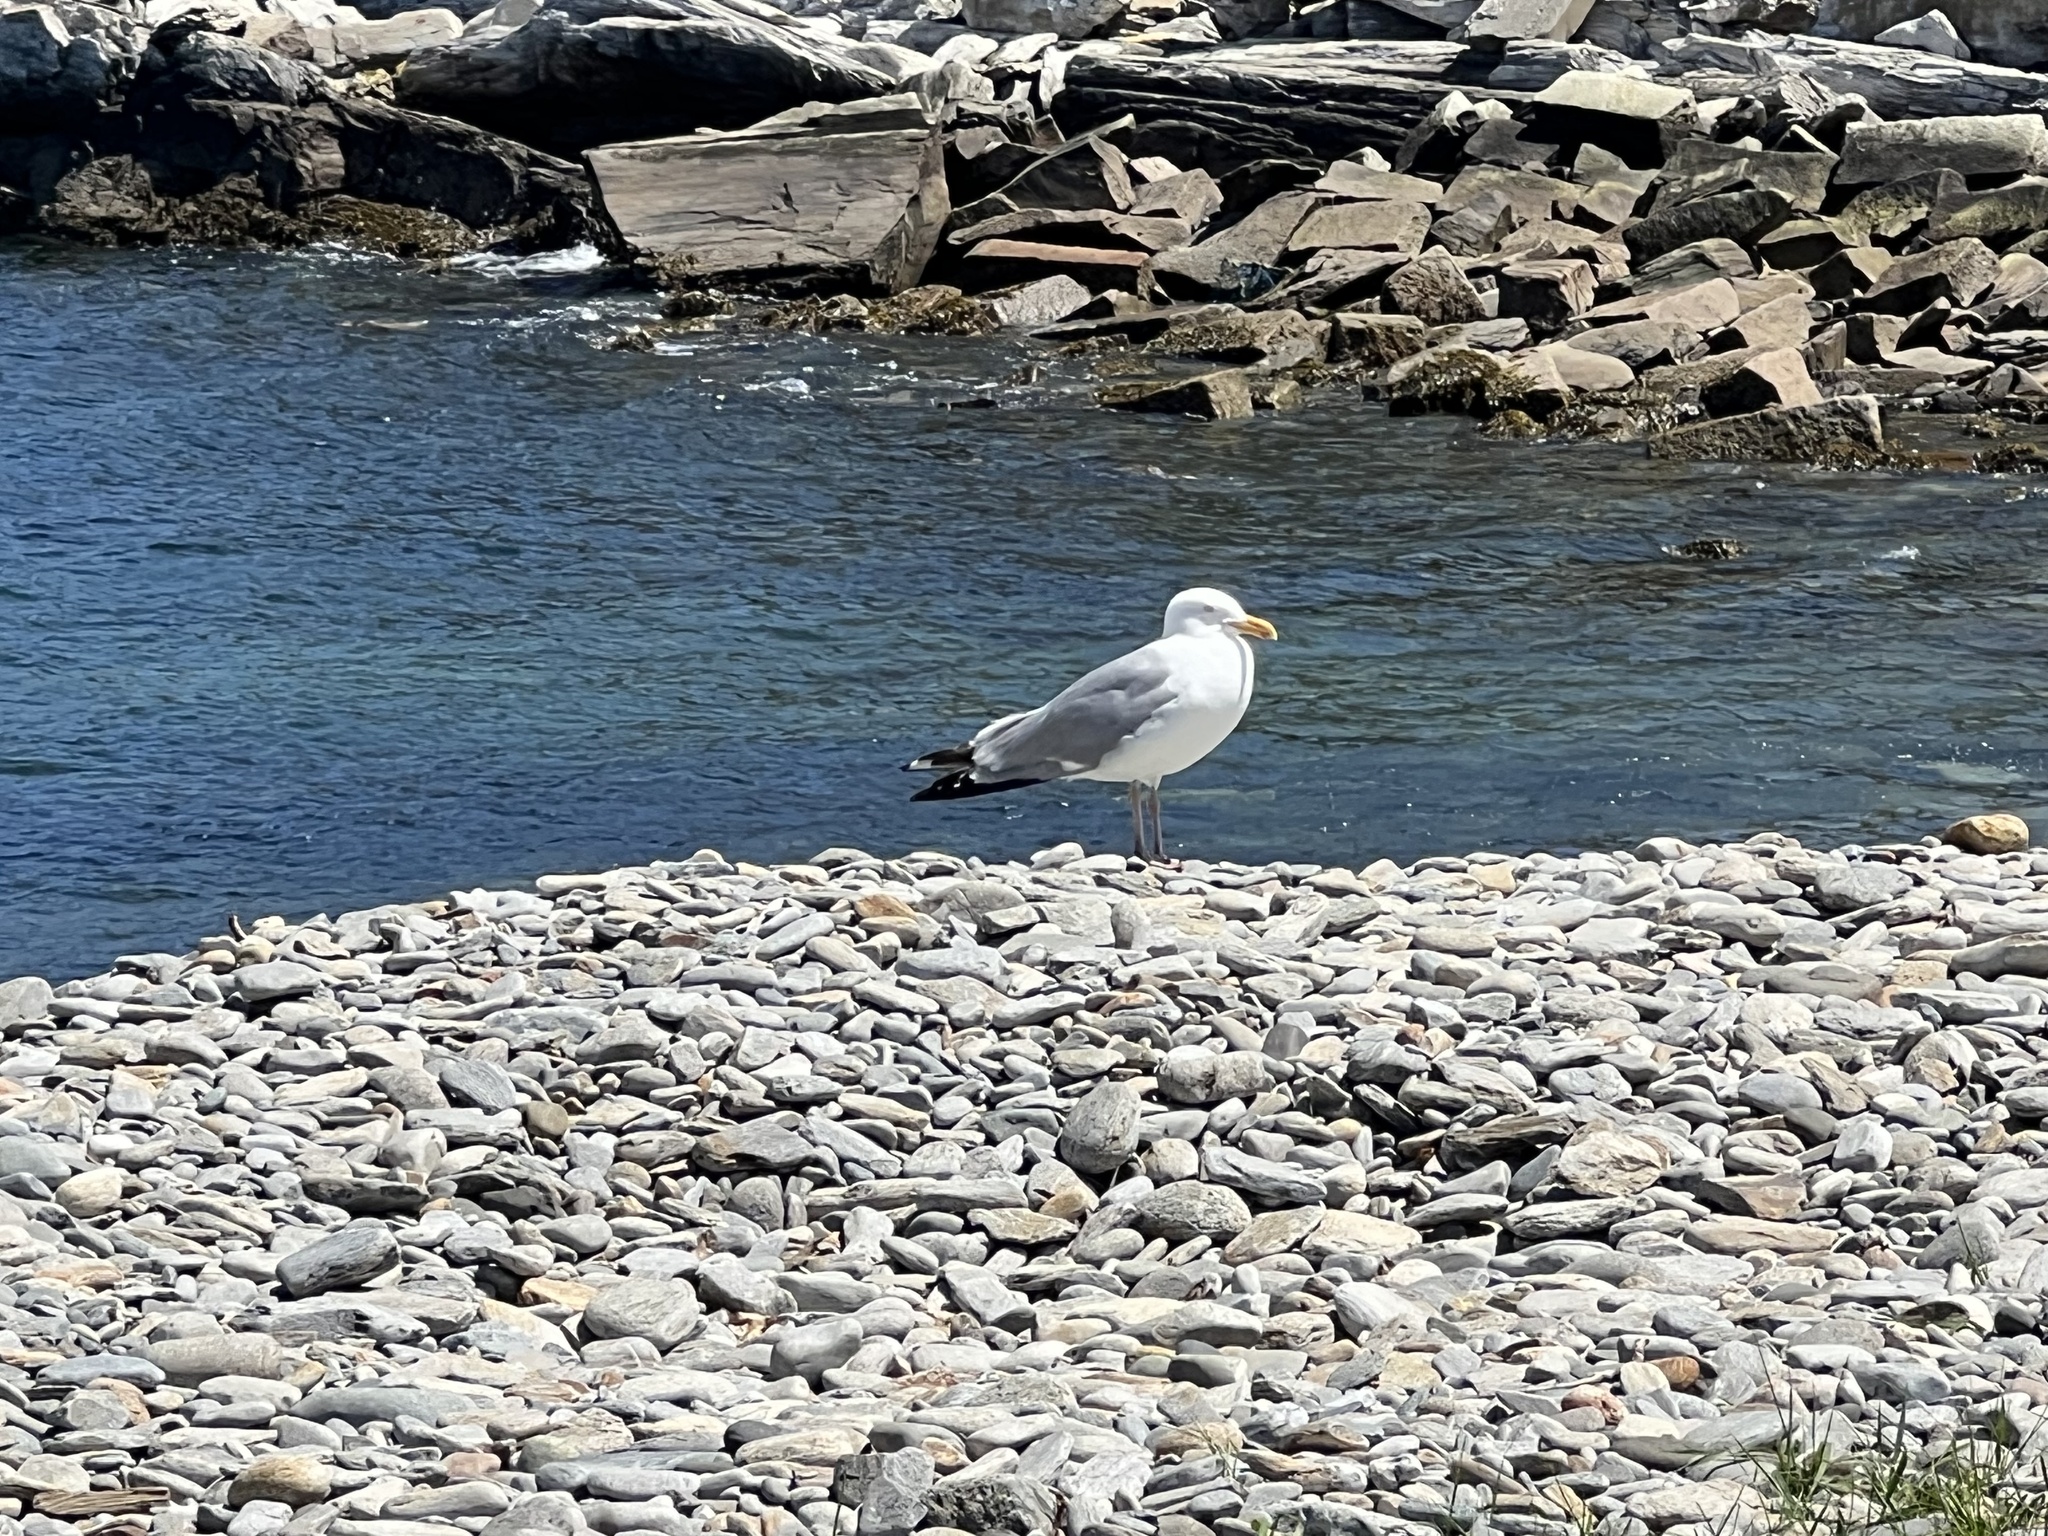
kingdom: Animalia
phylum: Chordata
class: Aves
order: Charadriiformes
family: Laridae
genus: Larus
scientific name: Larus argentatus
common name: Herring gull
